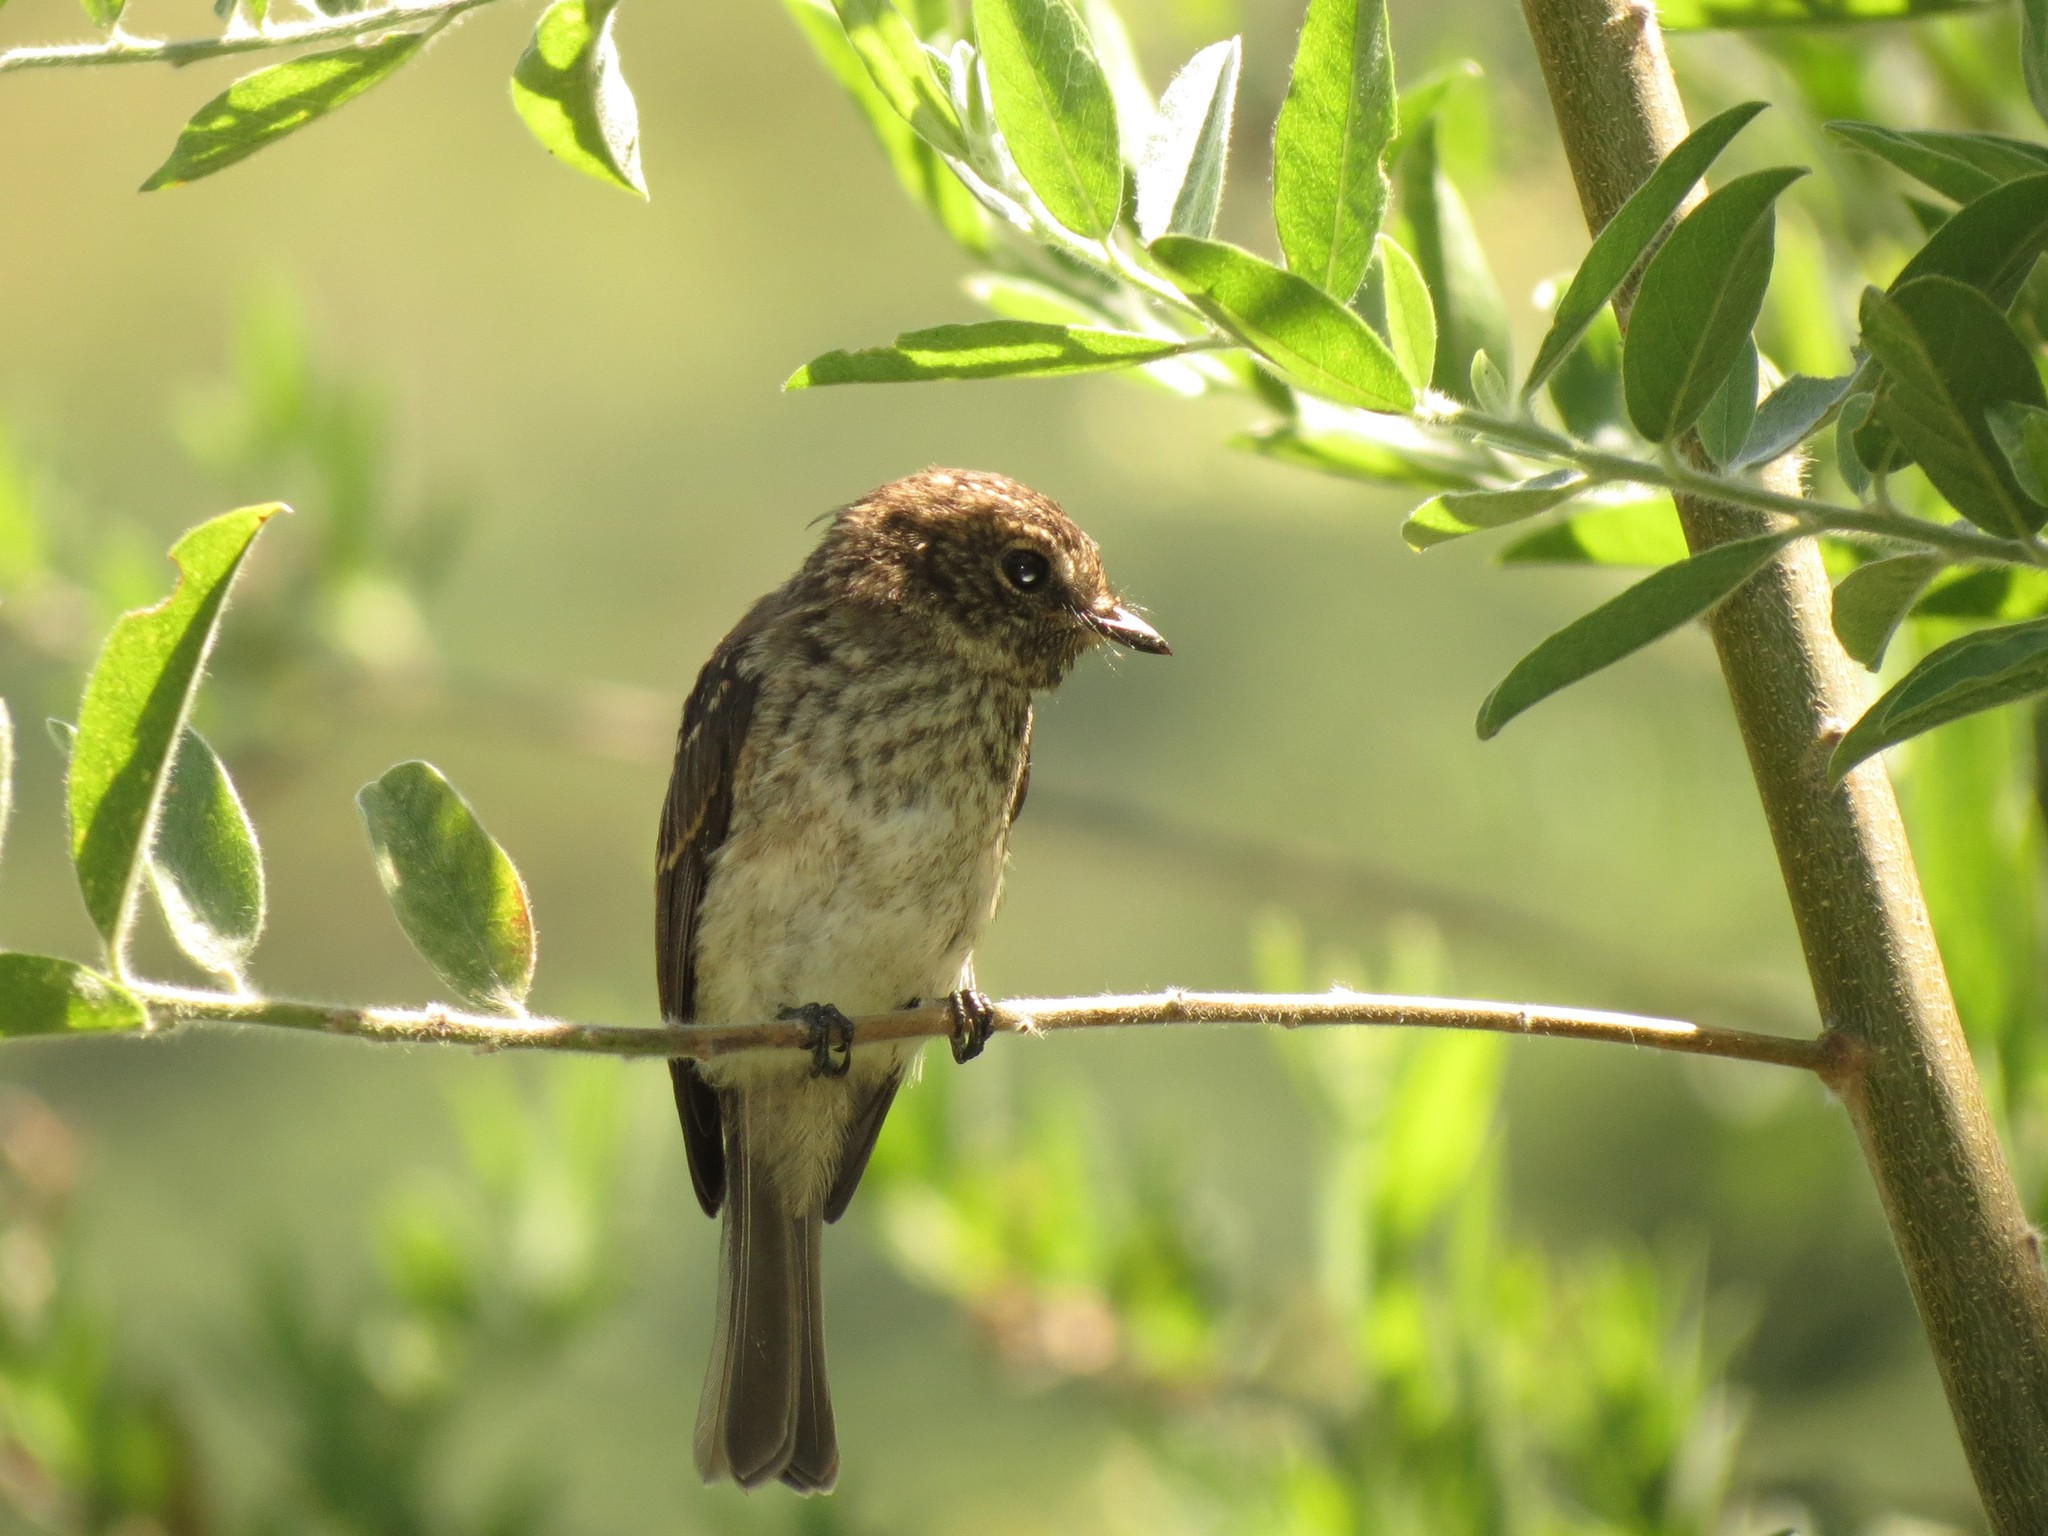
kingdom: Animalia
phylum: Chordata
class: Aves
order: Passeriformes
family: Muscicapidae
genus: Muscicapa
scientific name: Muscicapa adusta
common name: African dusky flycatcher
